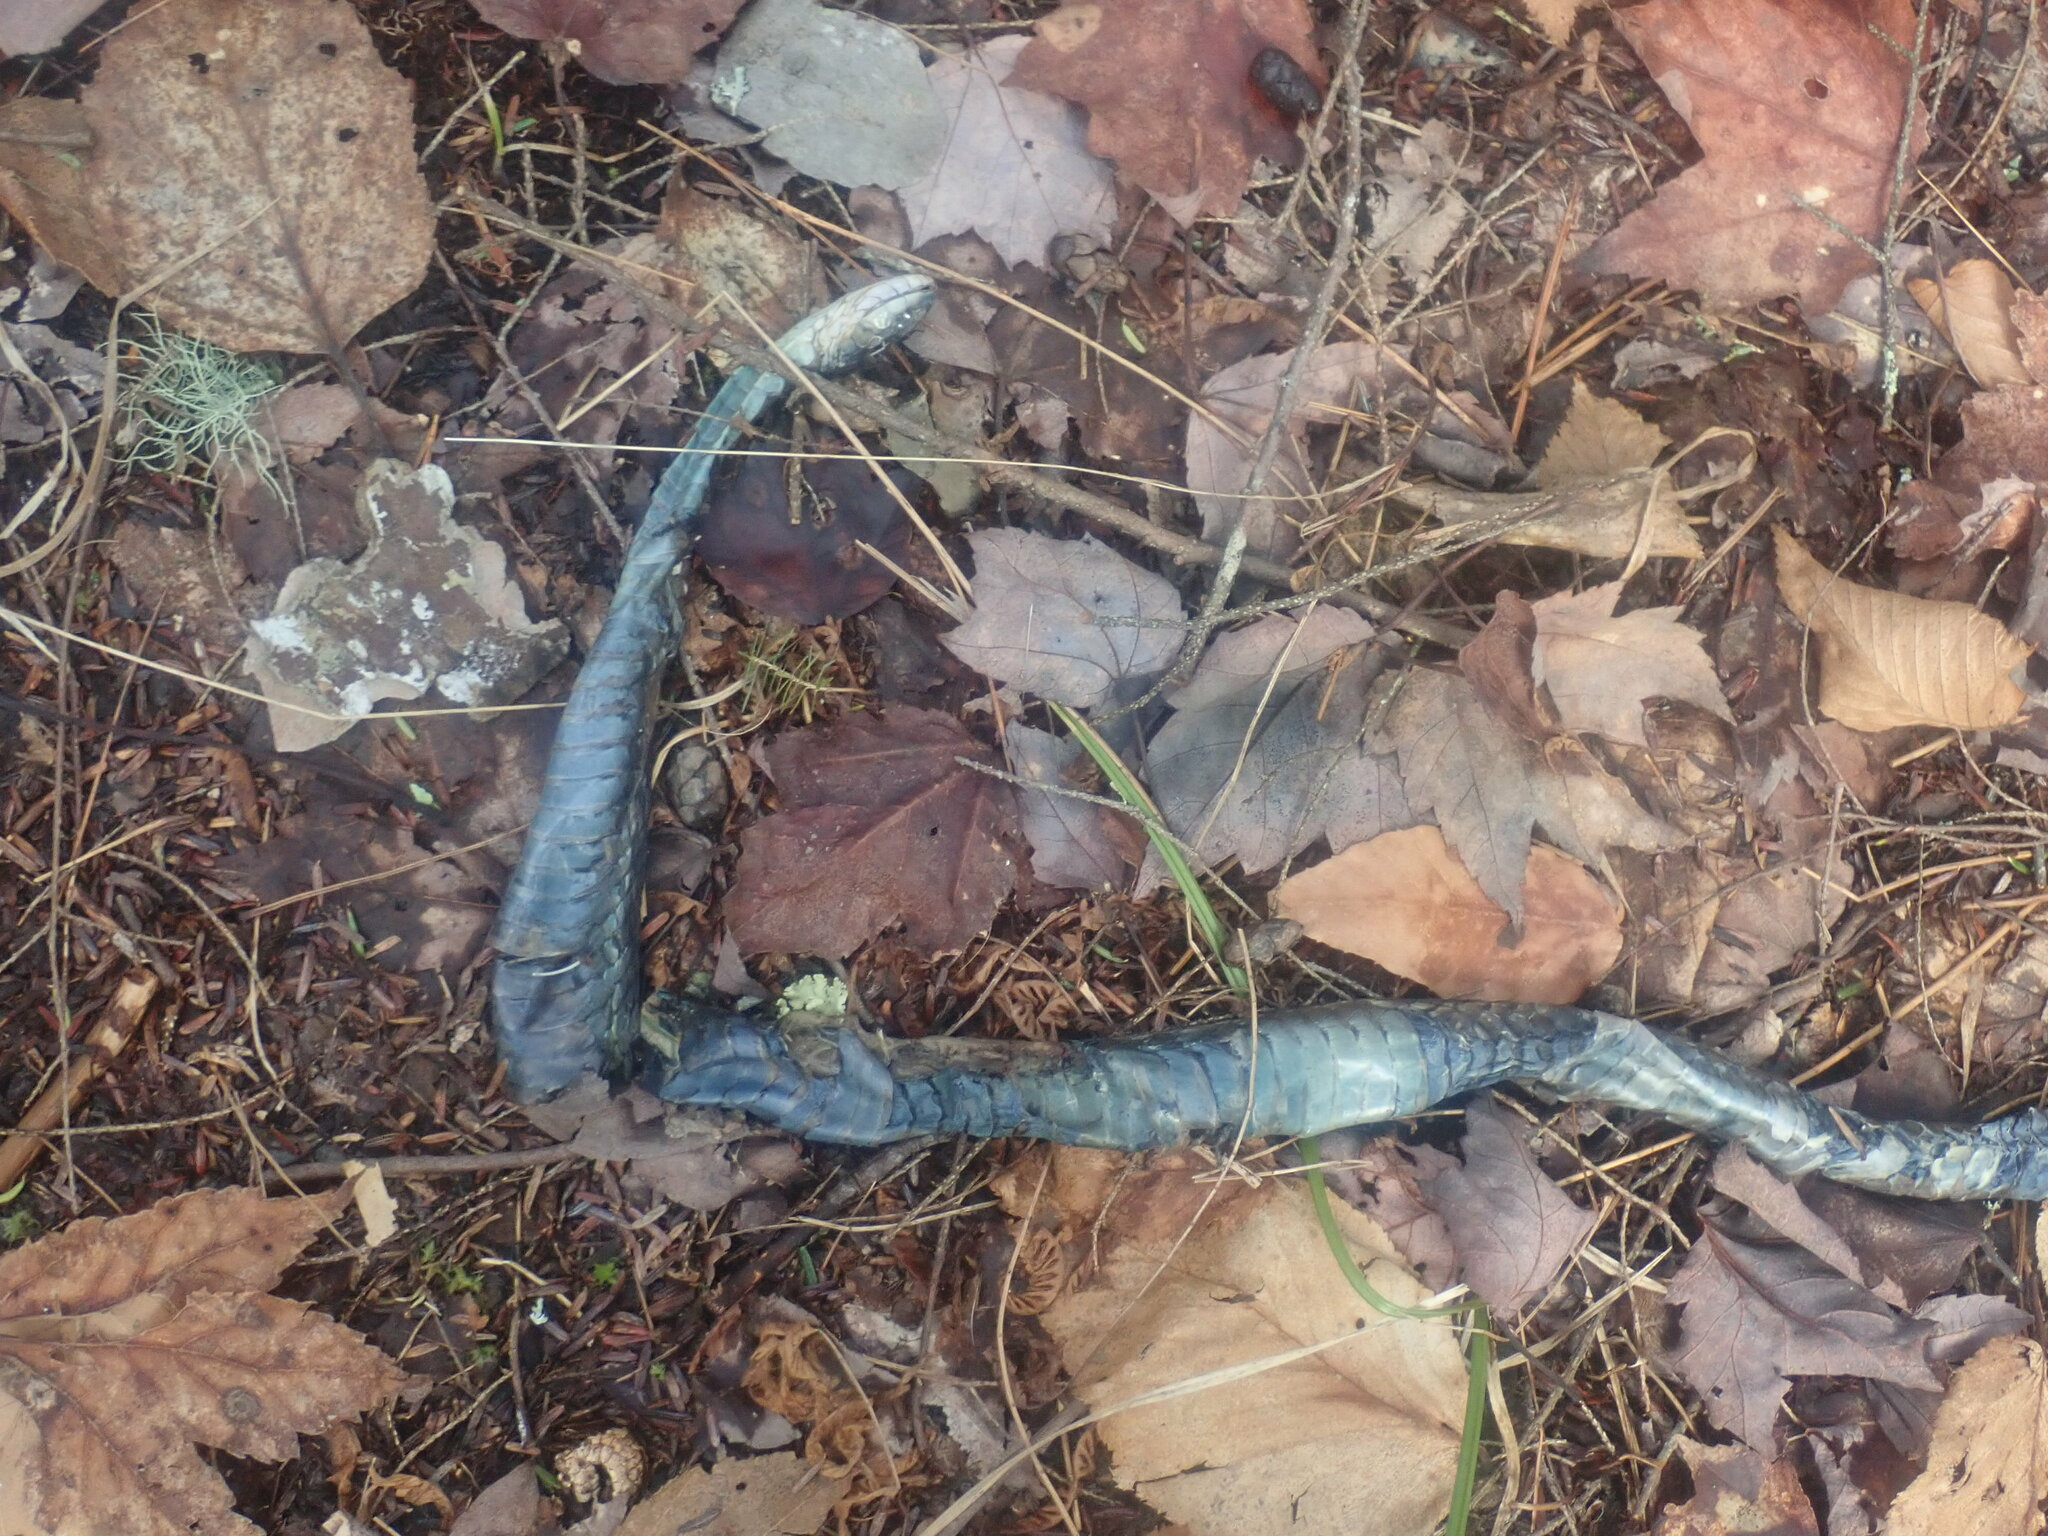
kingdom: Animalia
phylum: Chordata
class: Squamata
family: Colubridae
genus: Thamnophis
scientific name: Thamnophis sirtalis
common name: Common garter snake
